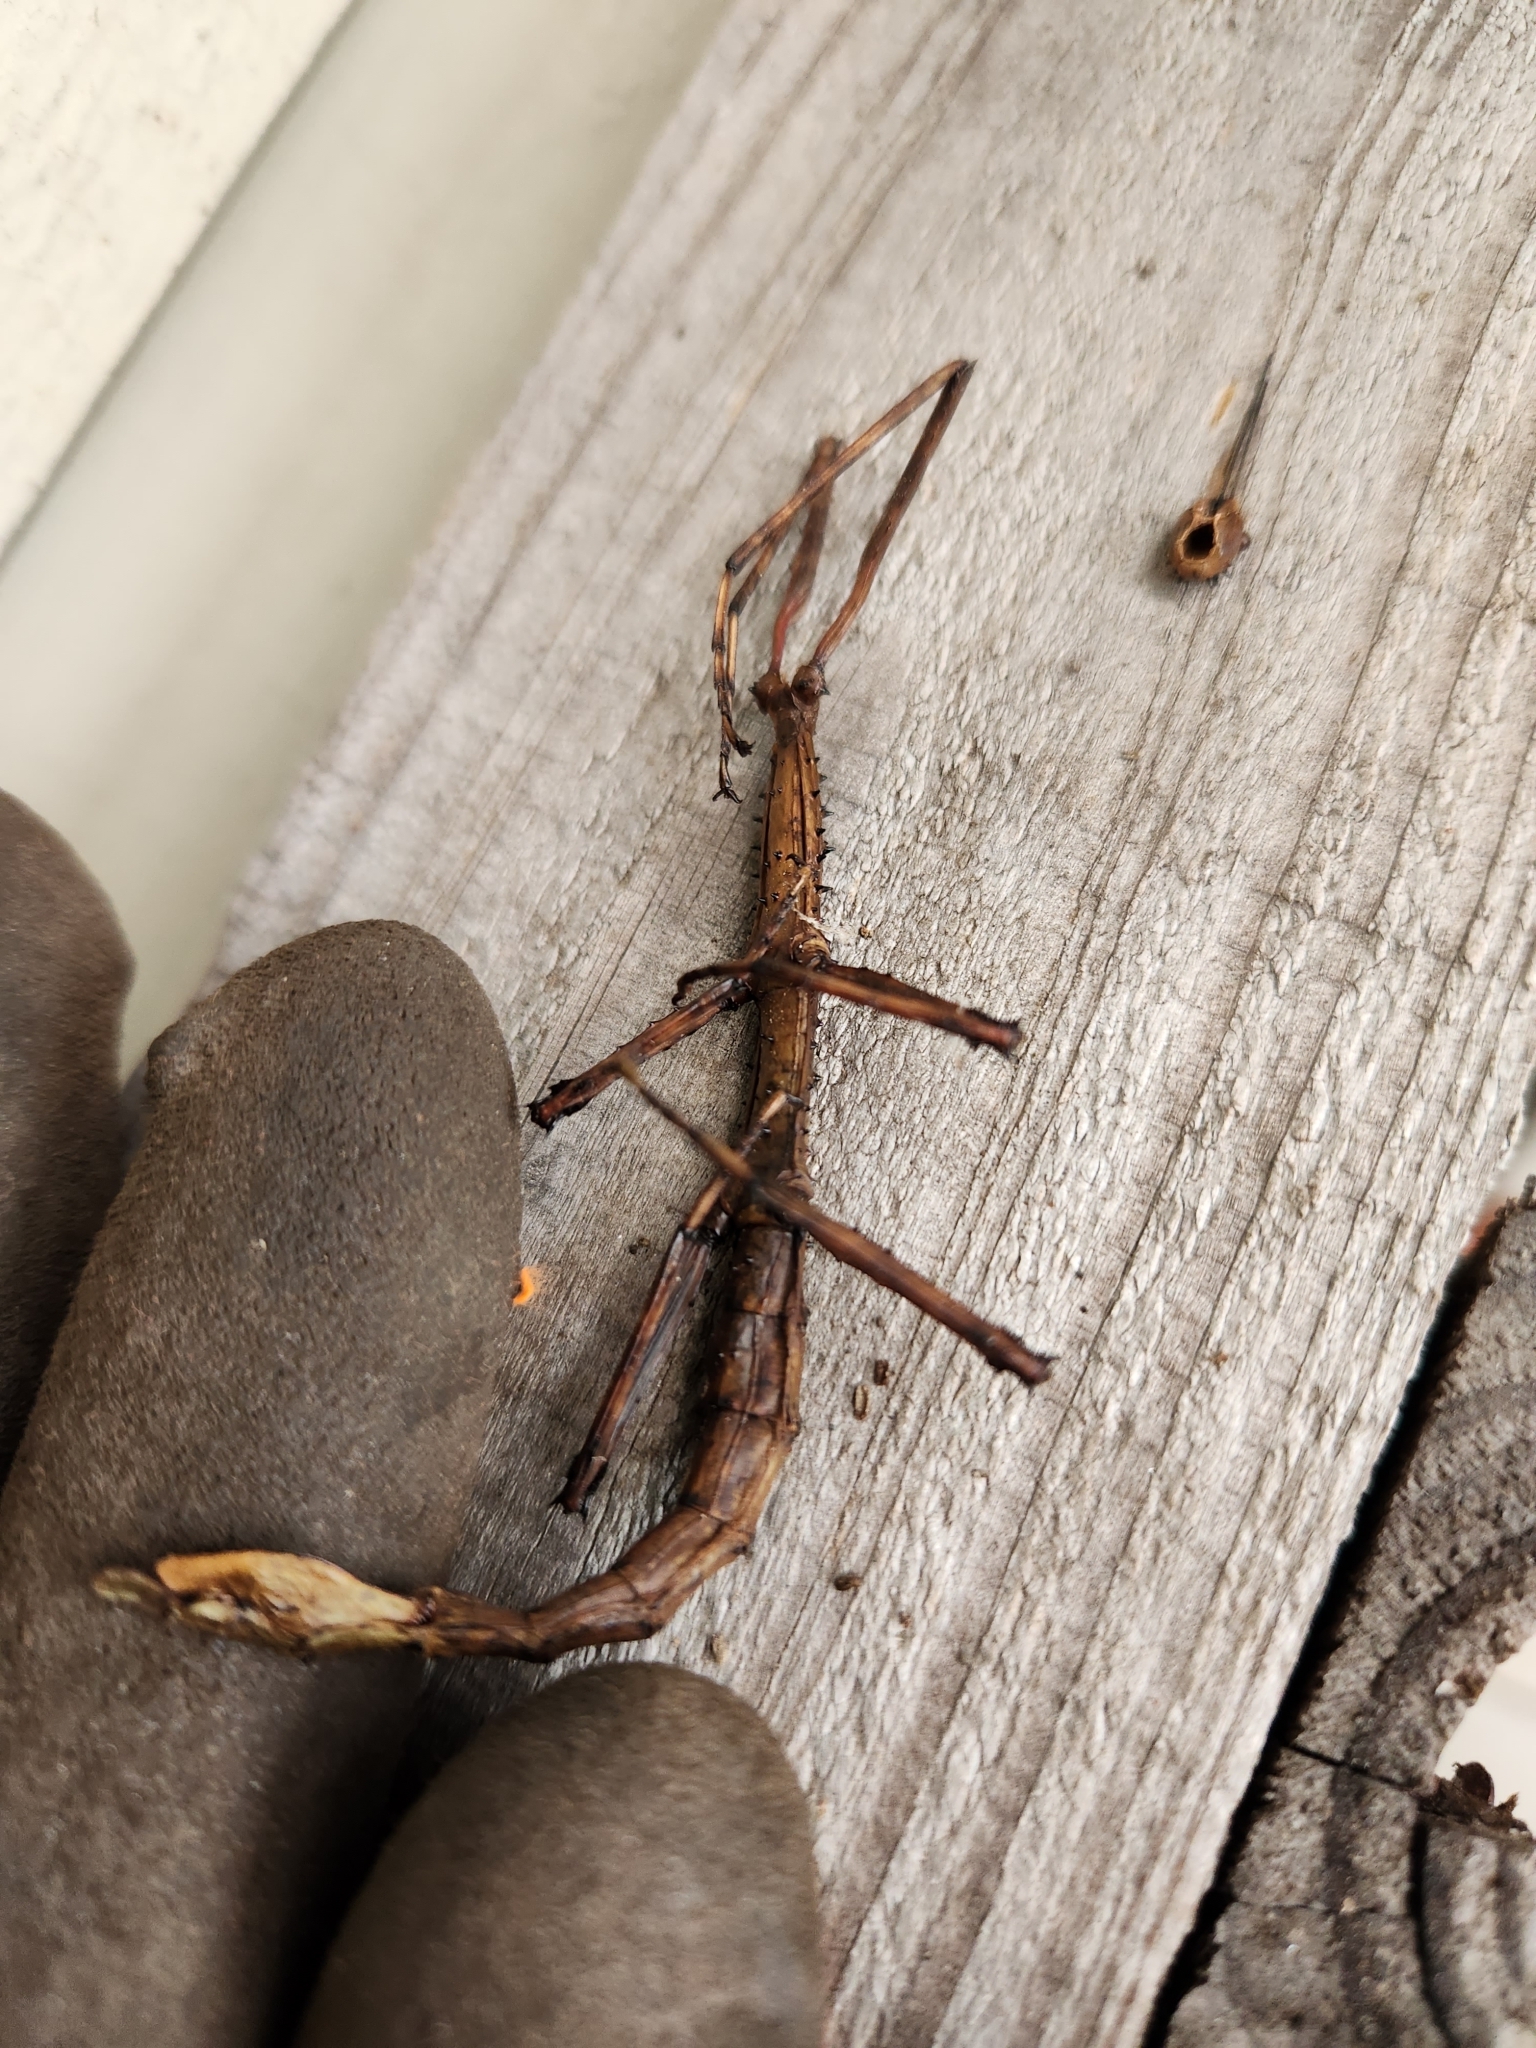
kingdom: Animalia
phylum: Arthropoda
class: Insecta
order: Phasmida
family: Phasmatidae
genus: Acanthoxyla
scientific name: Acanthoxyla prasina
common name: Black-spined stick insect
